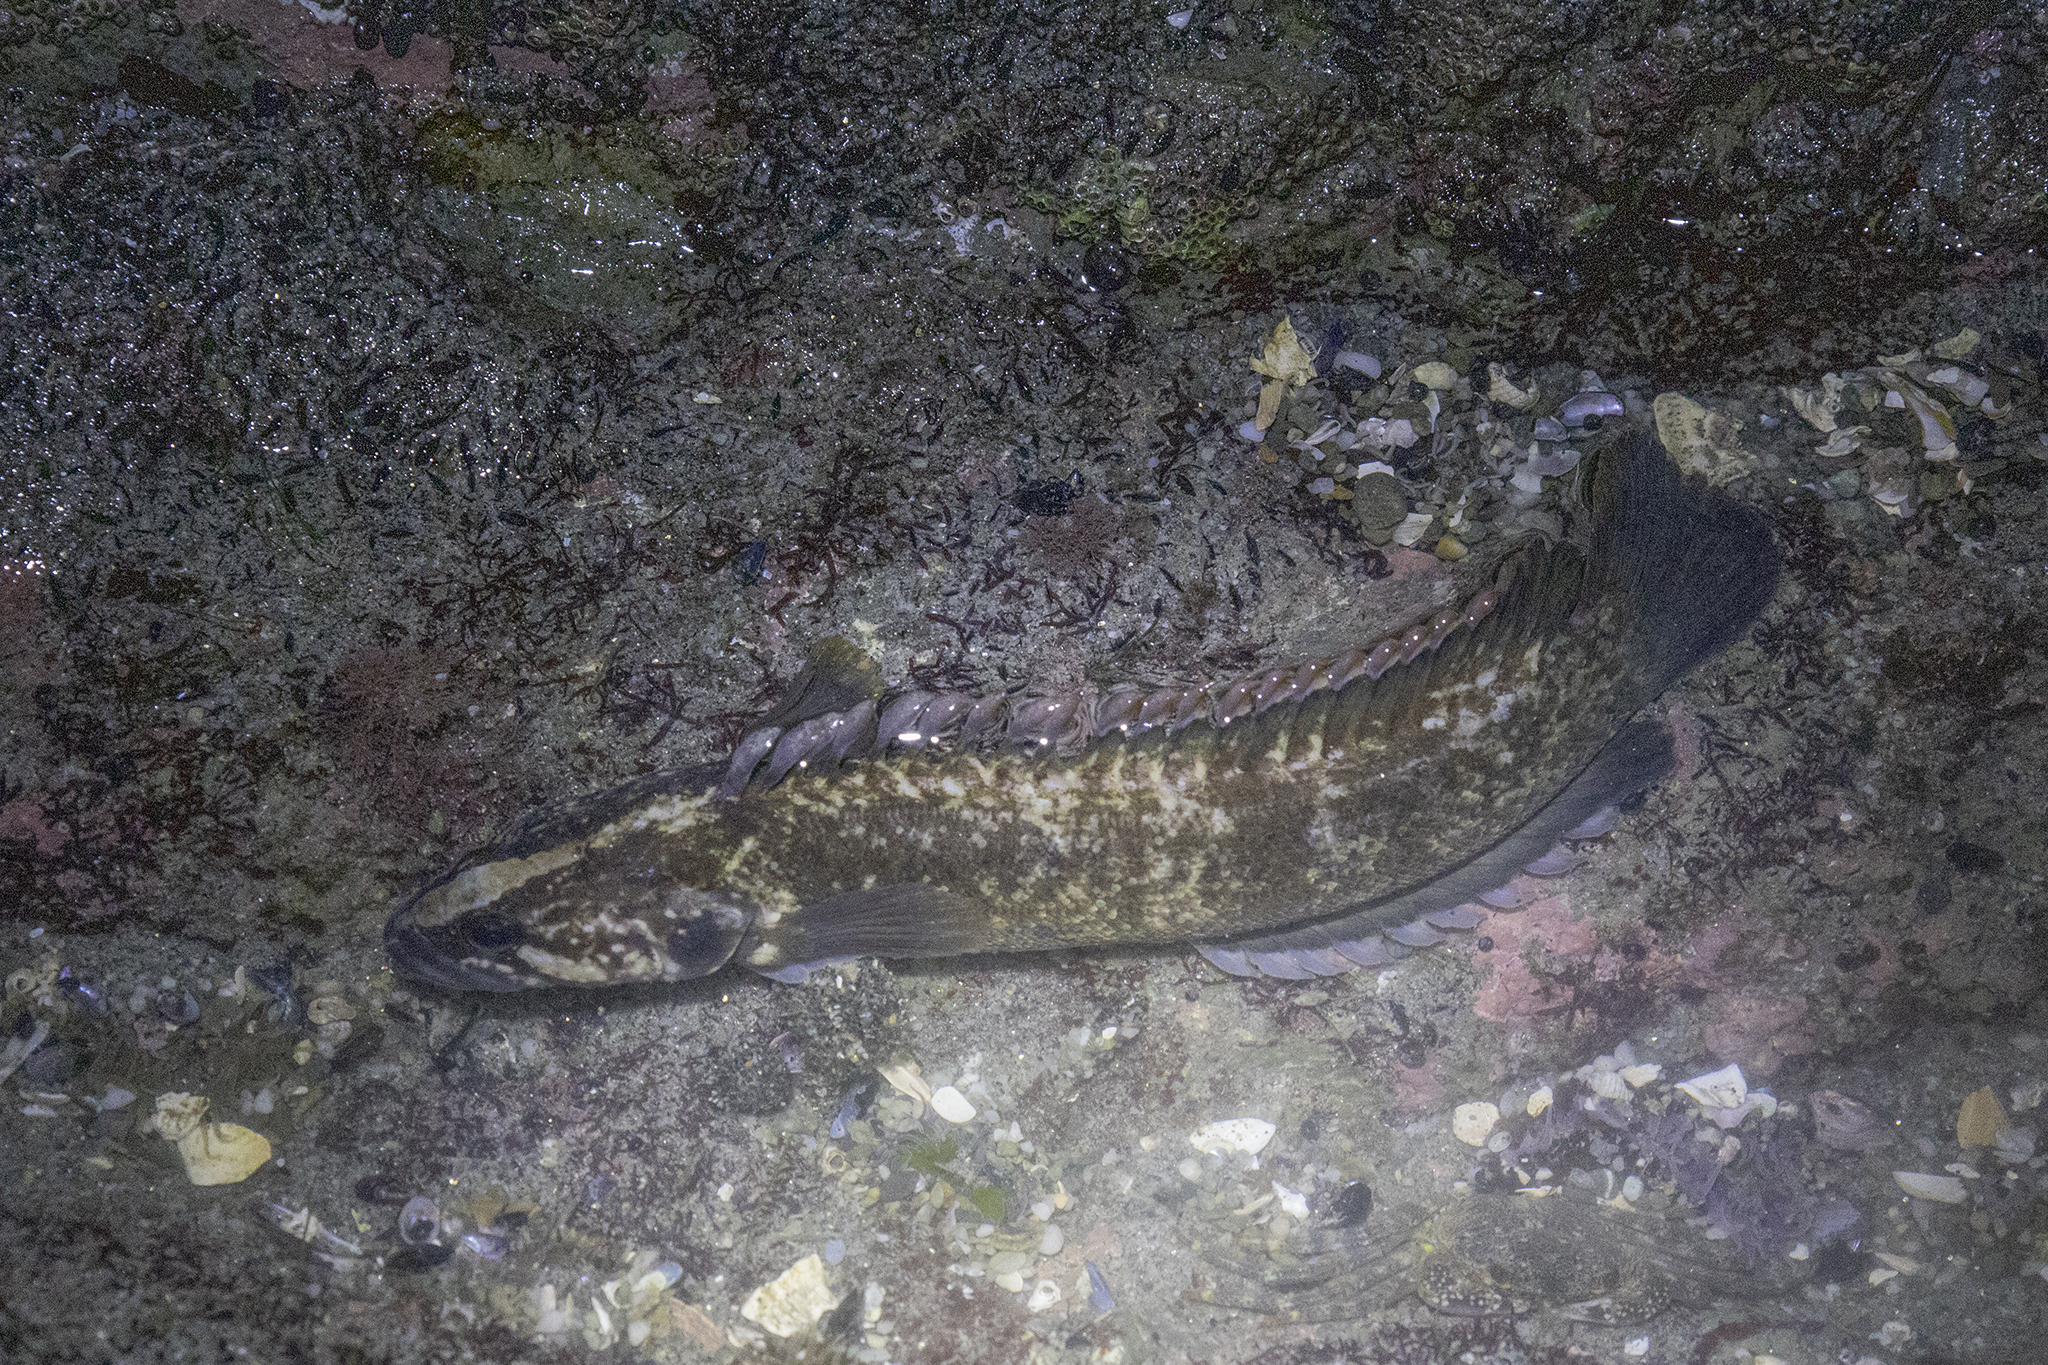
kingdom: Animalia
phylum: Chordata
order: Perciformes
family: Plesiopidae
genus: Acanthoclinus
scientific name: Acanthoclinus fuscus
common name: Olive rockfish
